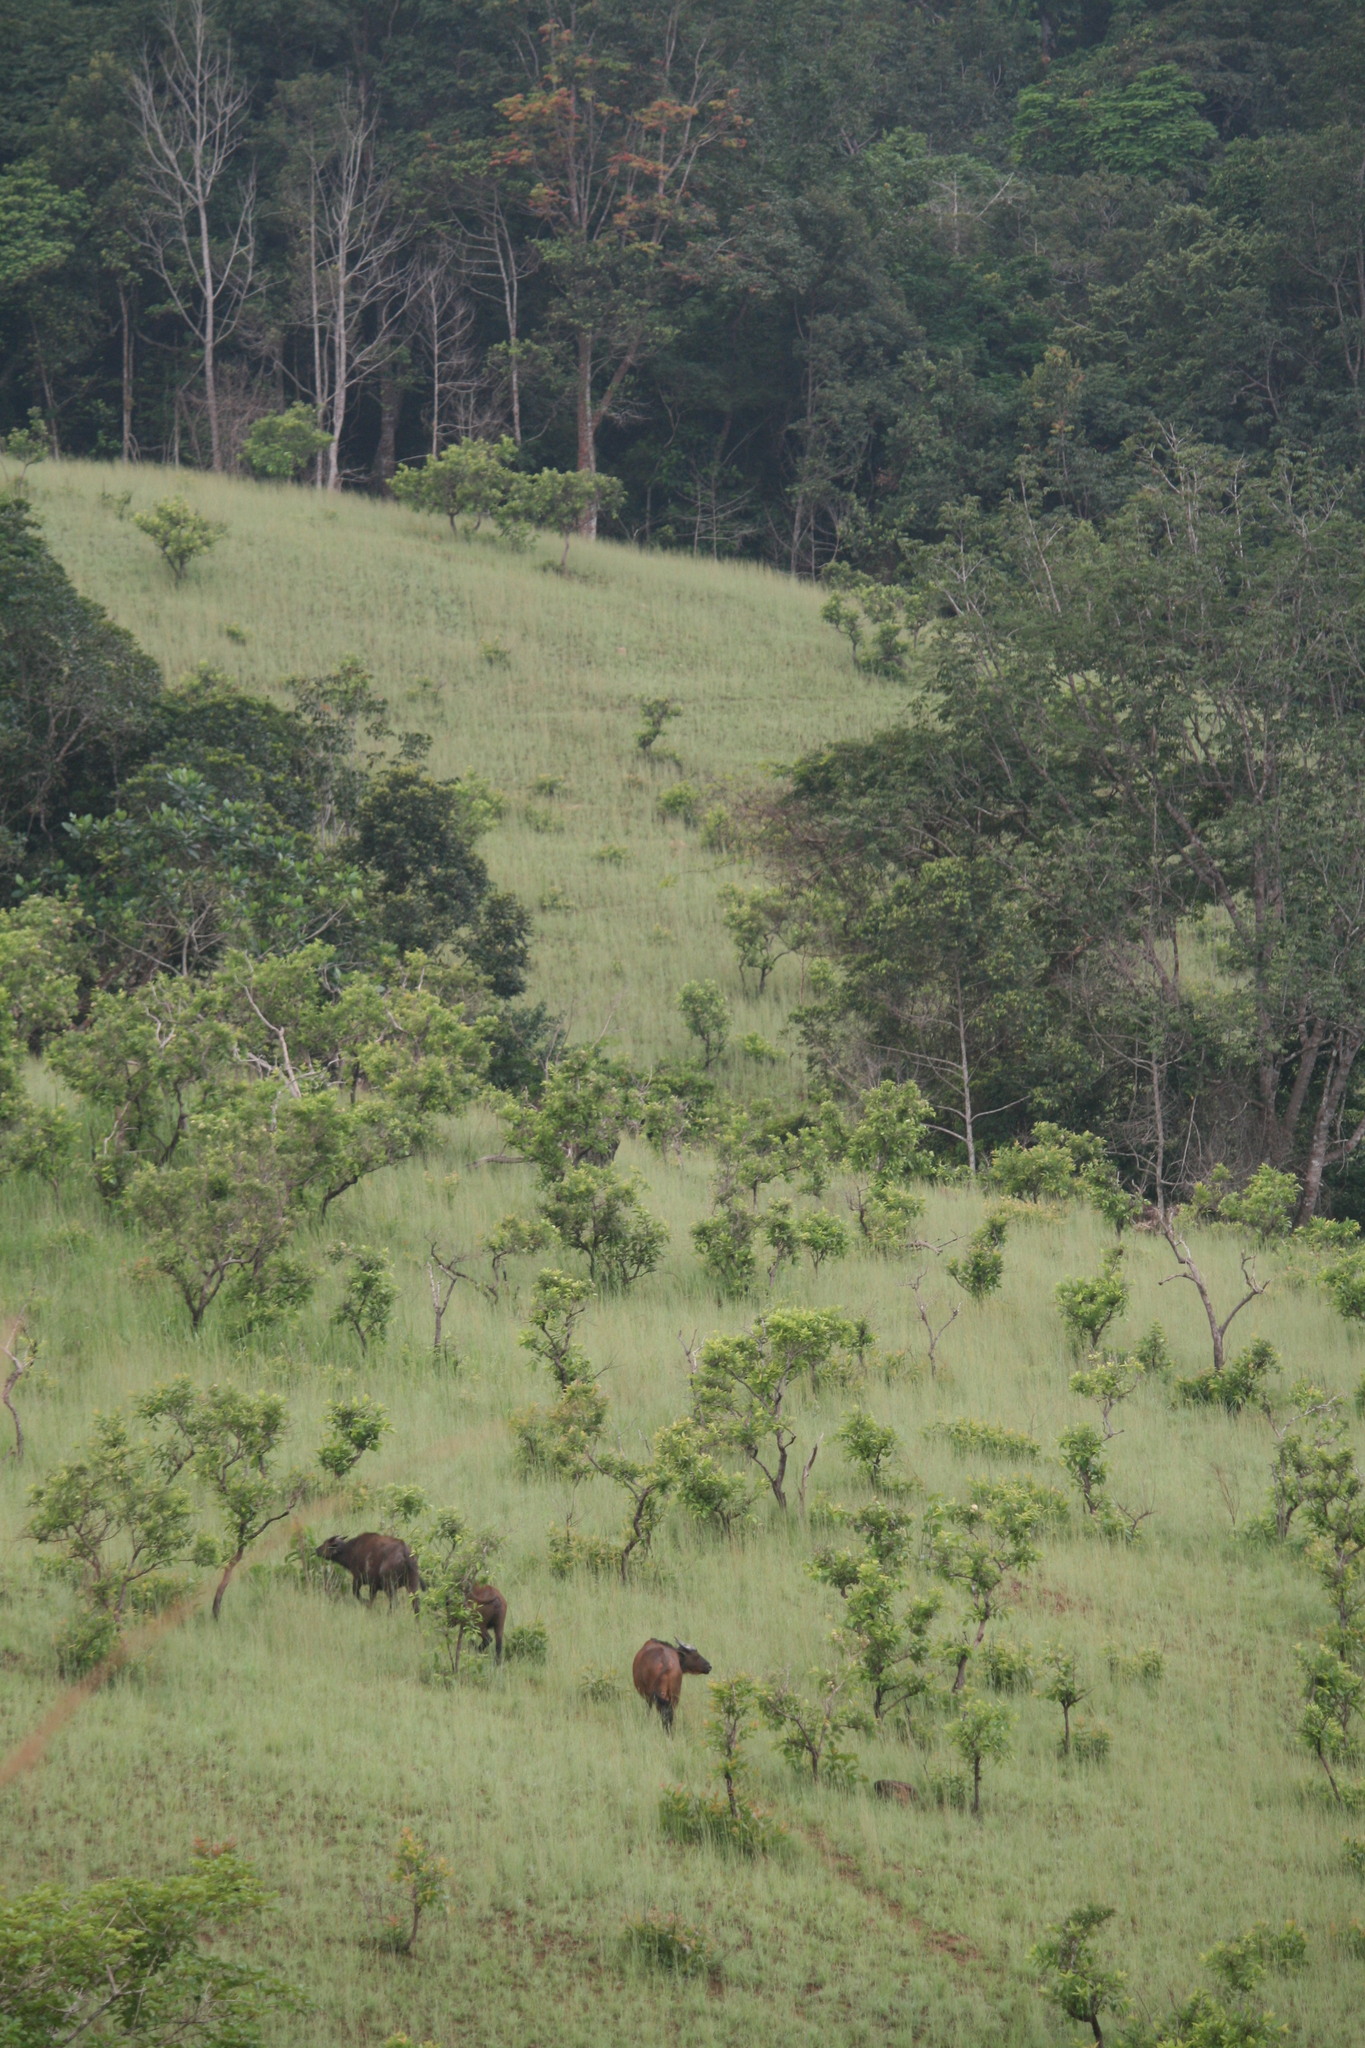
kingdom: Animalia
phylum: Chordata
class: Mammalia
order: Artiodactyla
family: Bovidae
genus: Syncerus
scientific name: Syncerus caffer
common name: African buffalo
